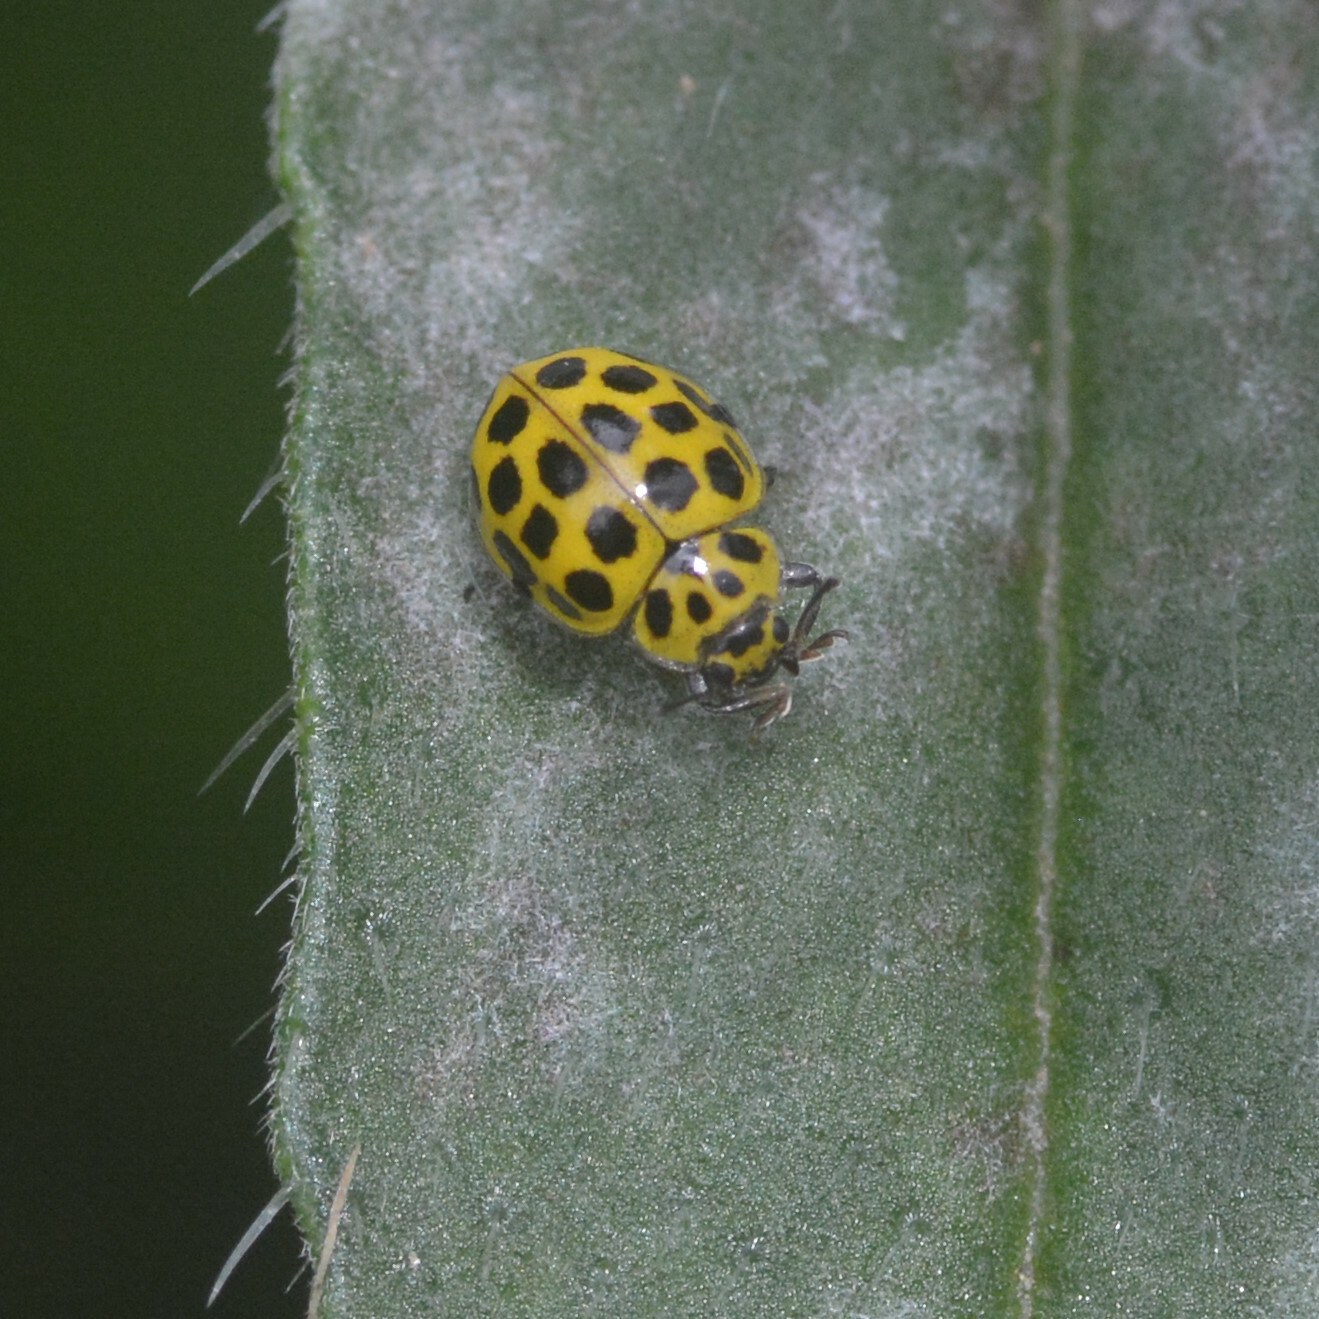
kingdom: Animalia
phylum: Arthropoda
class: Insecta
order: Coleoptera
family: Coccinellidae
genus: Psyllobora
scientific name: Psyllobora vigintiduopunctata
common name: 22-spot ladybird
